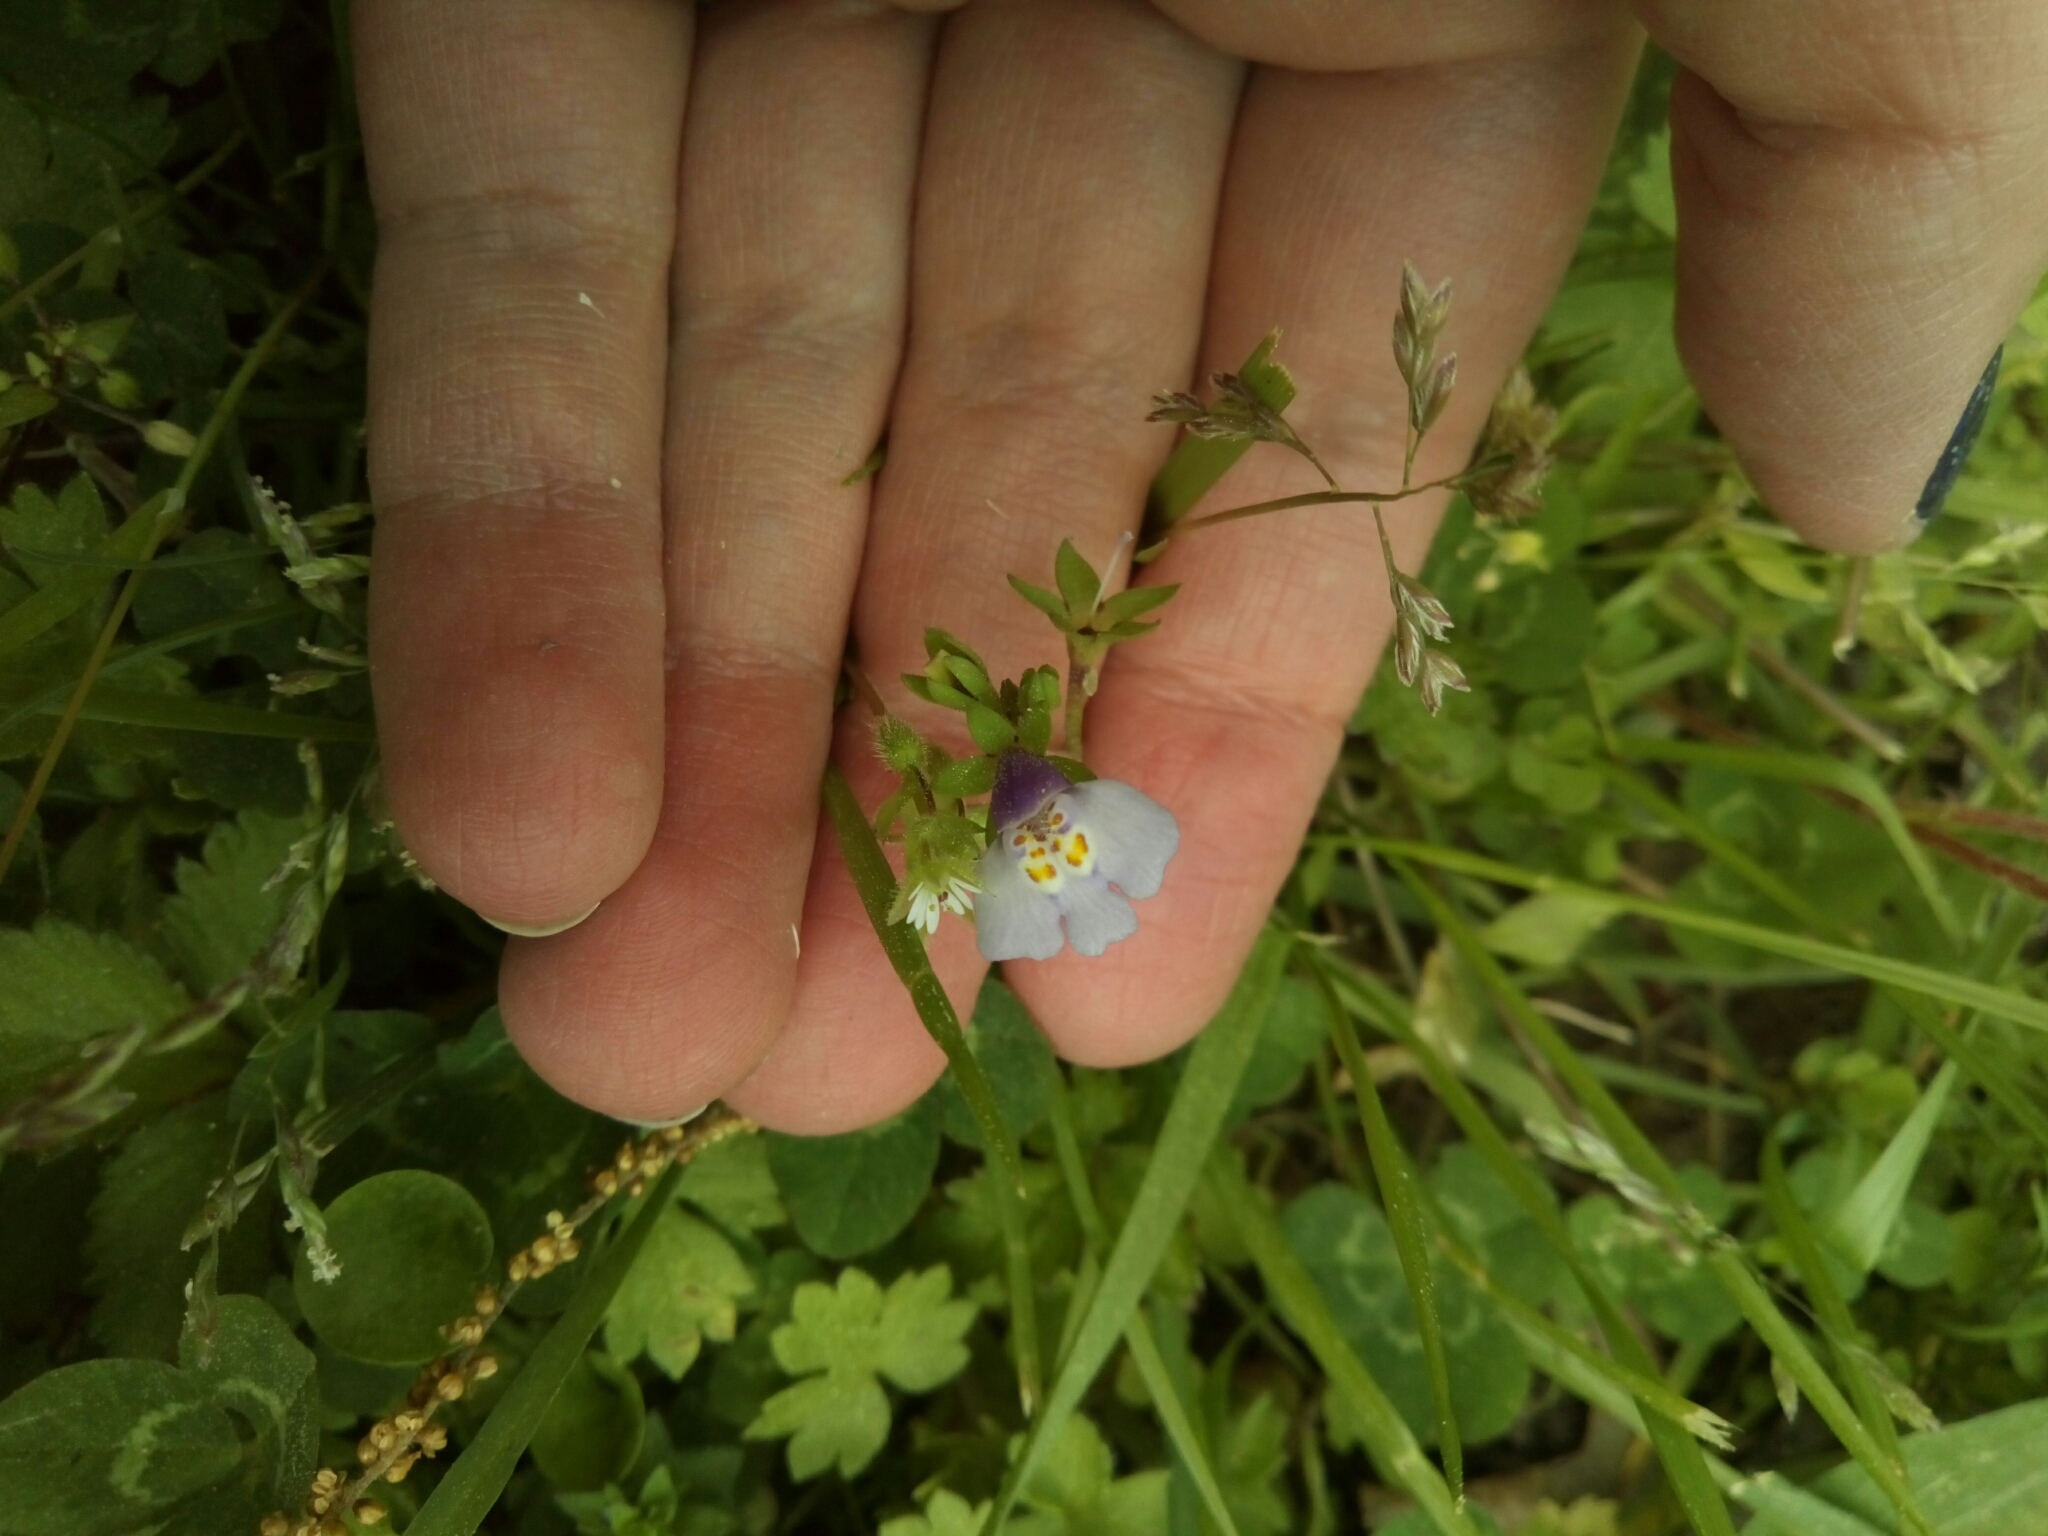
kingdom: Plantae
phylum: Tracheophyta
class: Magnoliopsida
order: Lamiales
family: Mazaceae
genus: Mazus
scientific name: Mazus pumilus
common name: Japanese mazus
